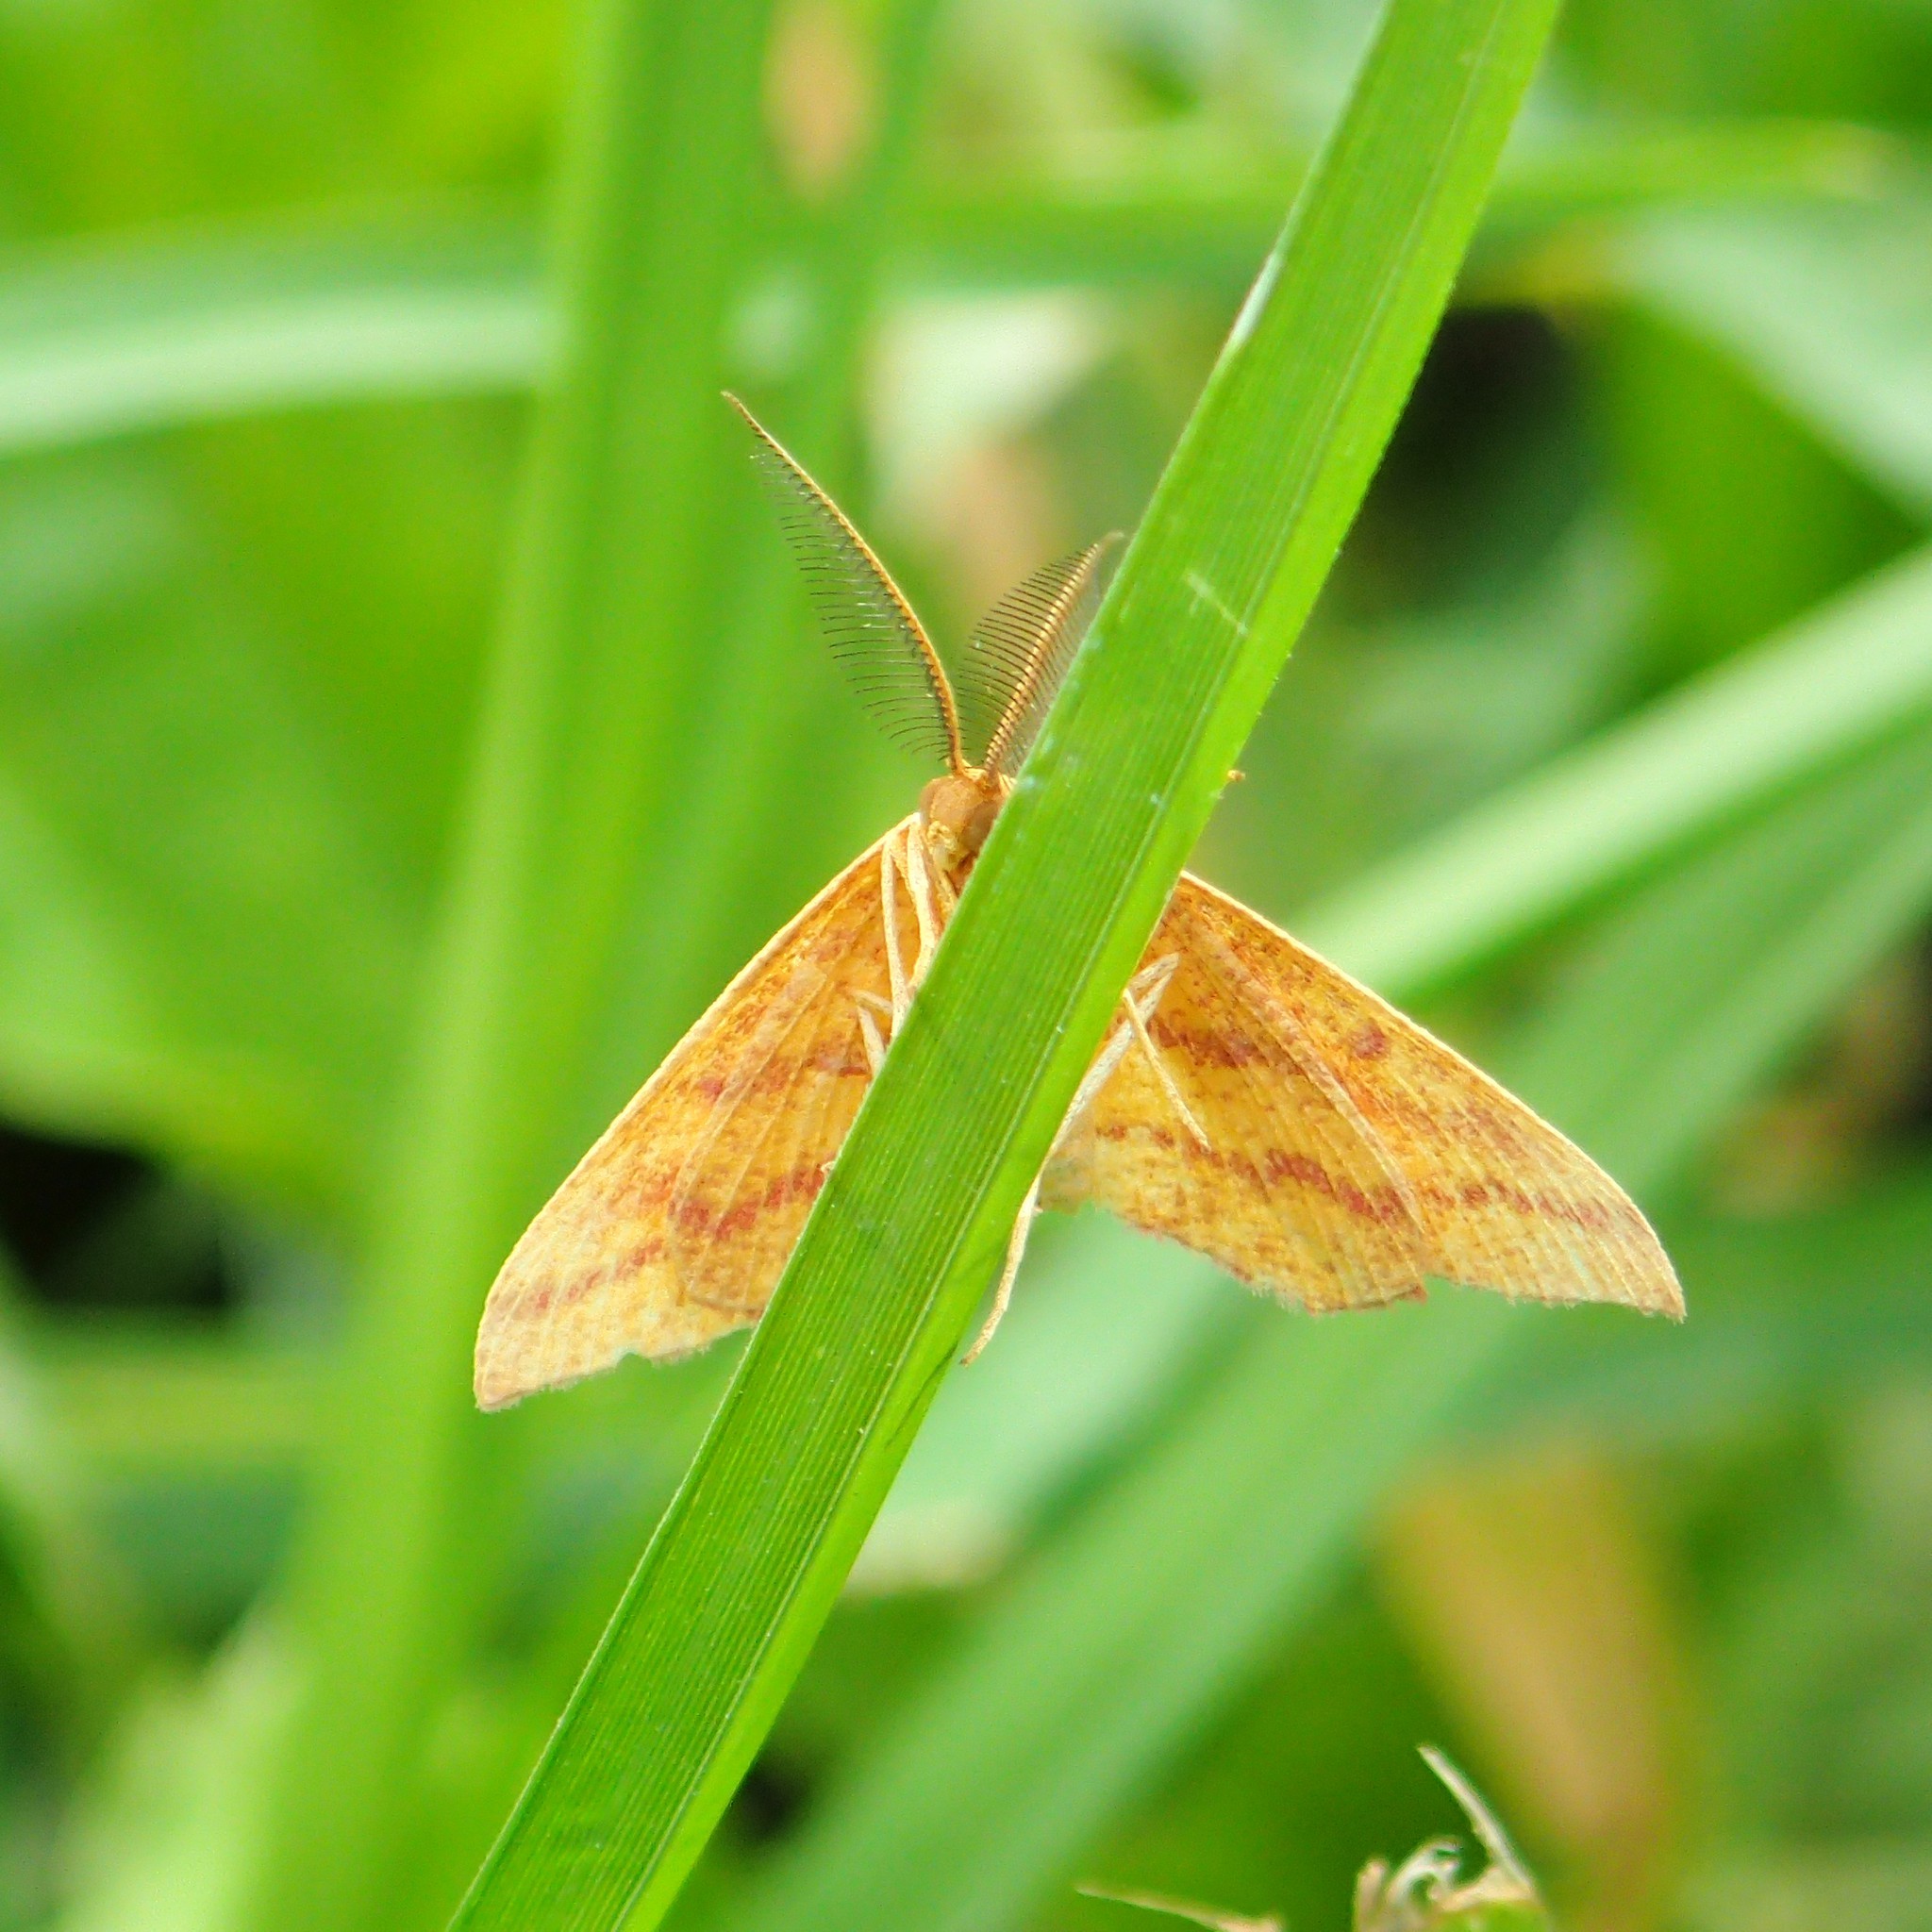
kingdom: Animalia
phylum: Arthropoda
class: Insecta
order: Lepidoptera
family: Geometridae
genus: Haematopis
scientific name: Haematopis grataria
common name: Chickweed geometer
